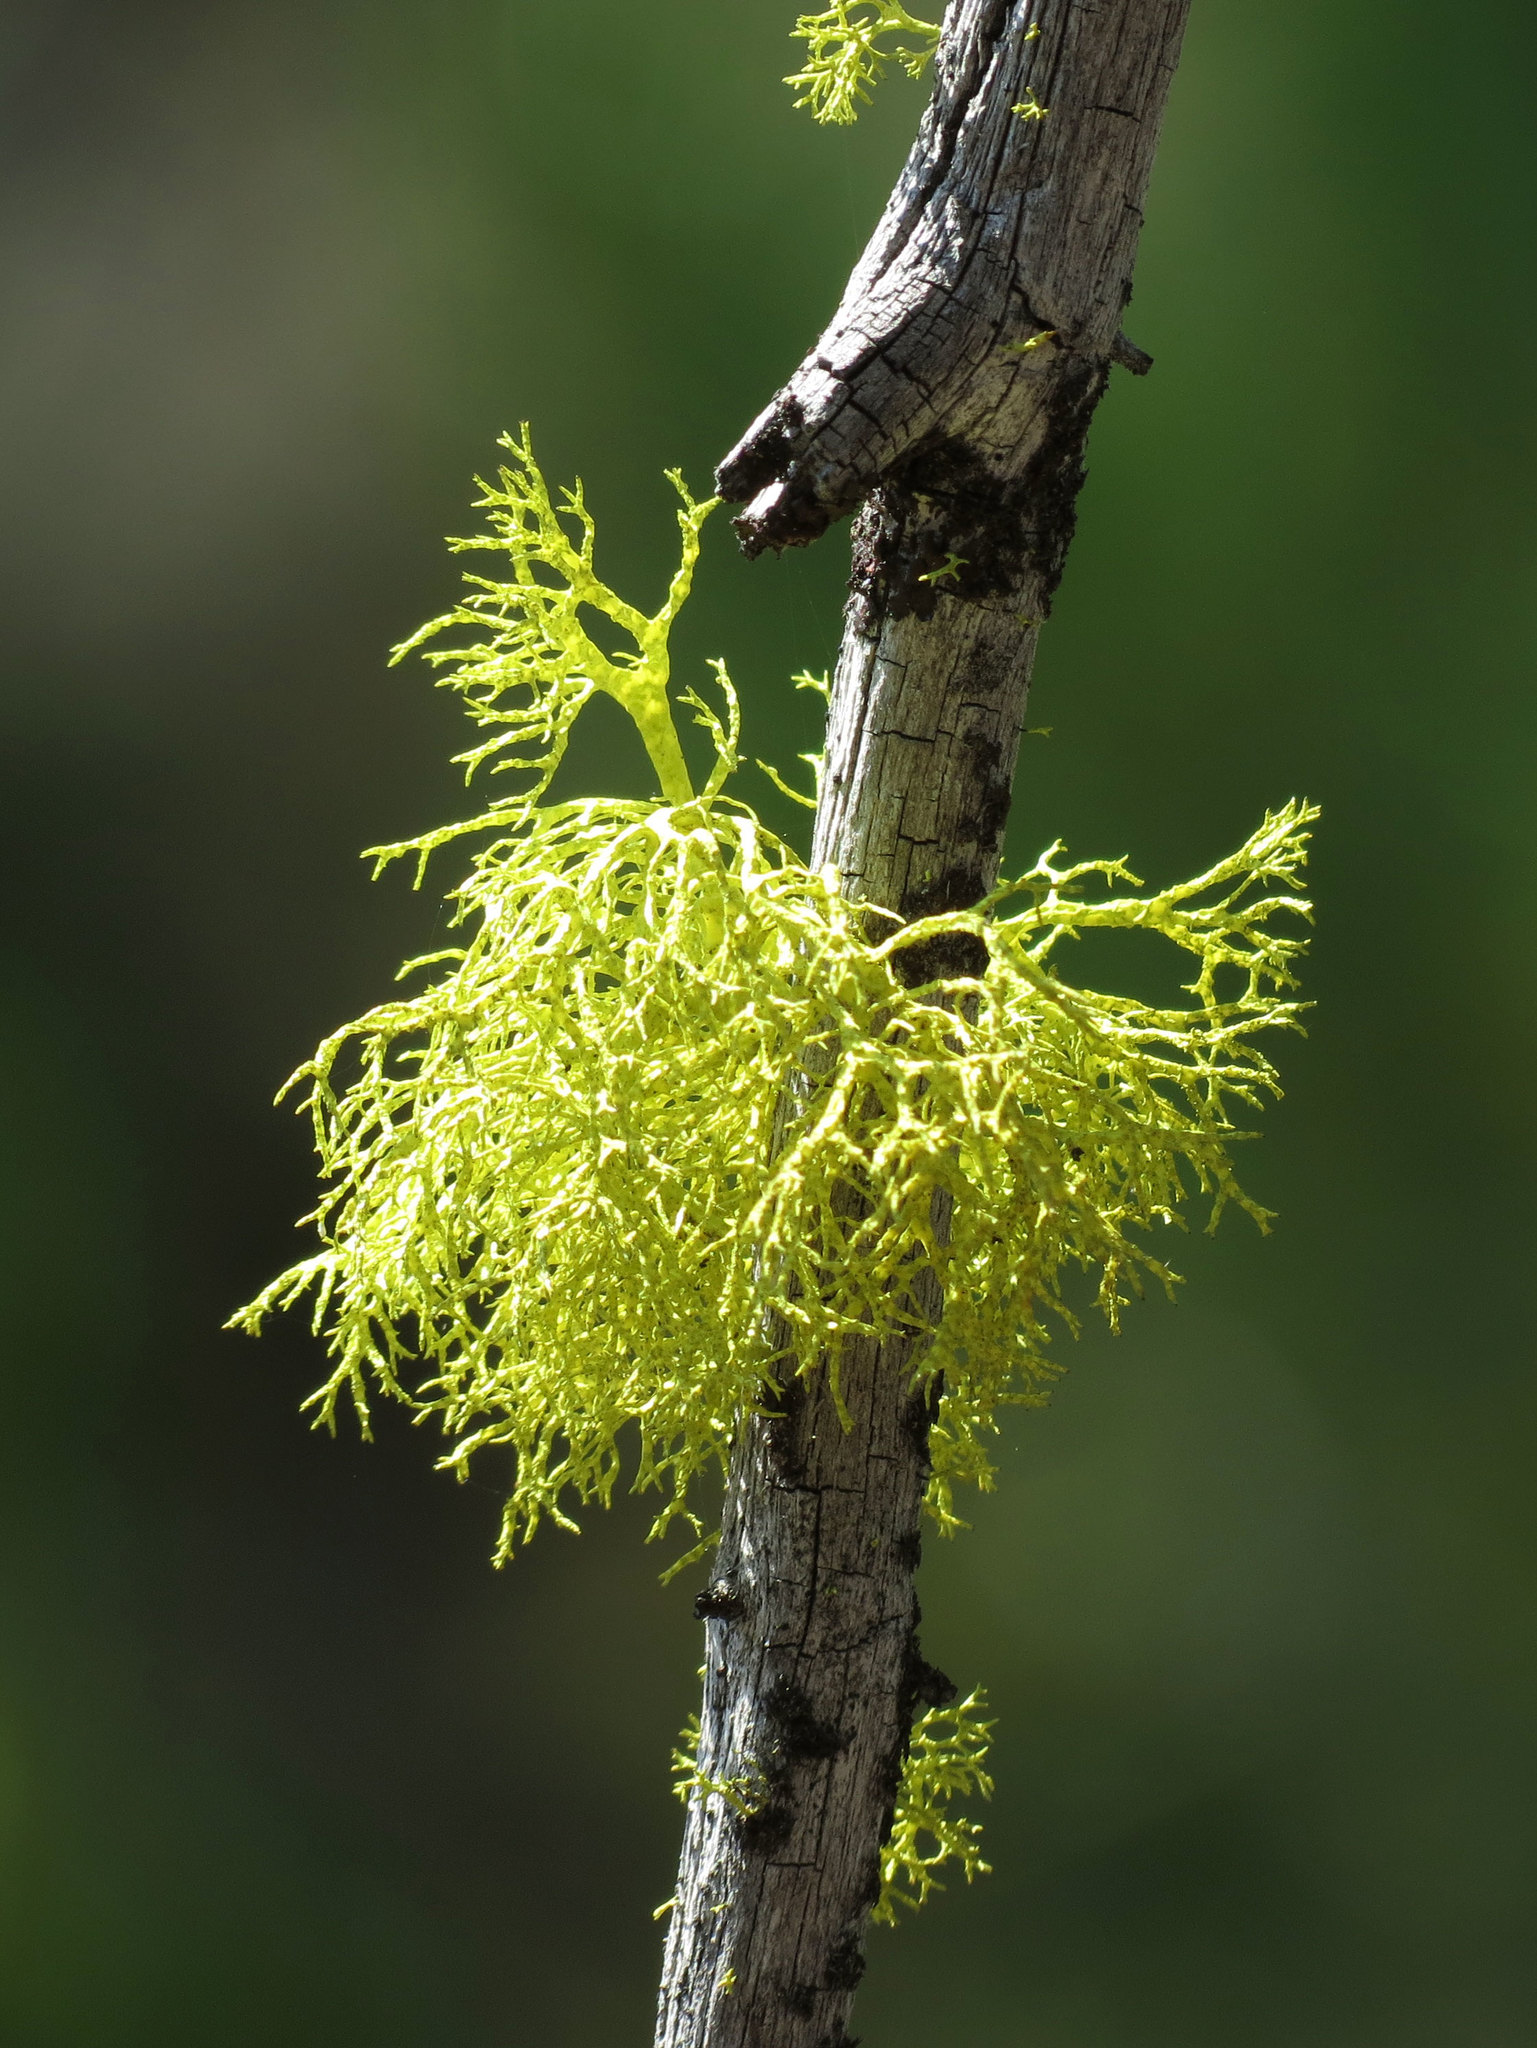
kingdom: Fungi
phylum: Ascomycota
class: Lecanoromycetes
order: Lecanorales
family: Parmeliaceae
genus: Letharia
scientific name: Letharia vulpina
